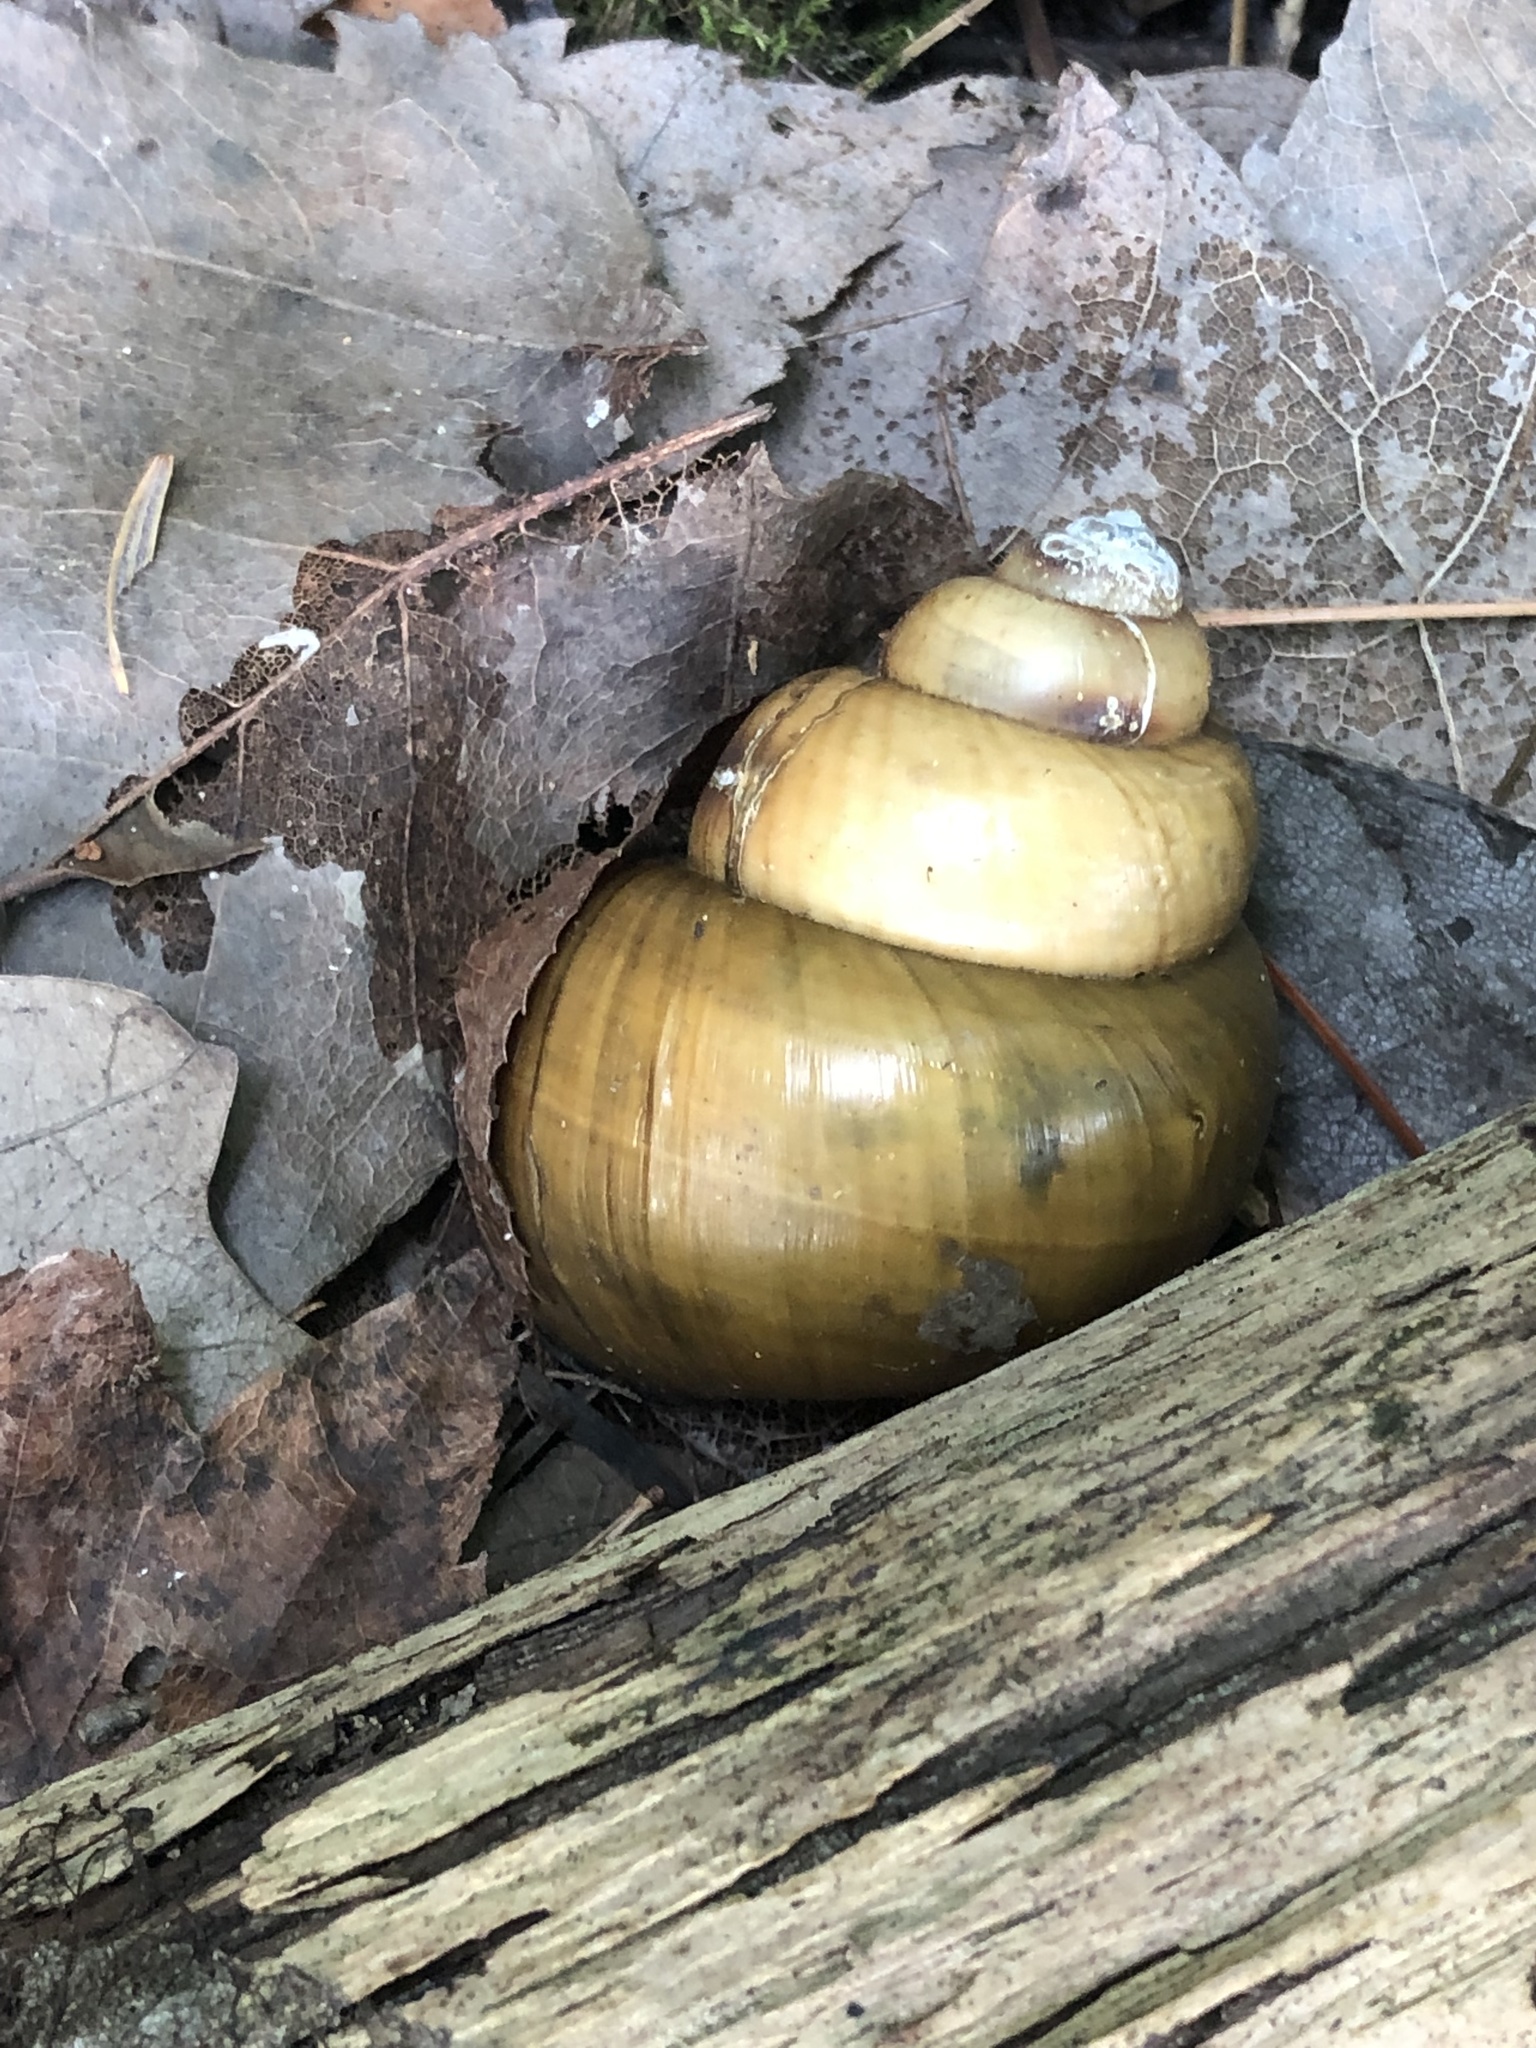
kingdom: Animalia
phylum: Mollusca
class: Gastropoda
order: Architaenioglossa
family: Viviparidae
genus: Cipangopaludina
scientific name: Cipangopaludina chinensis
